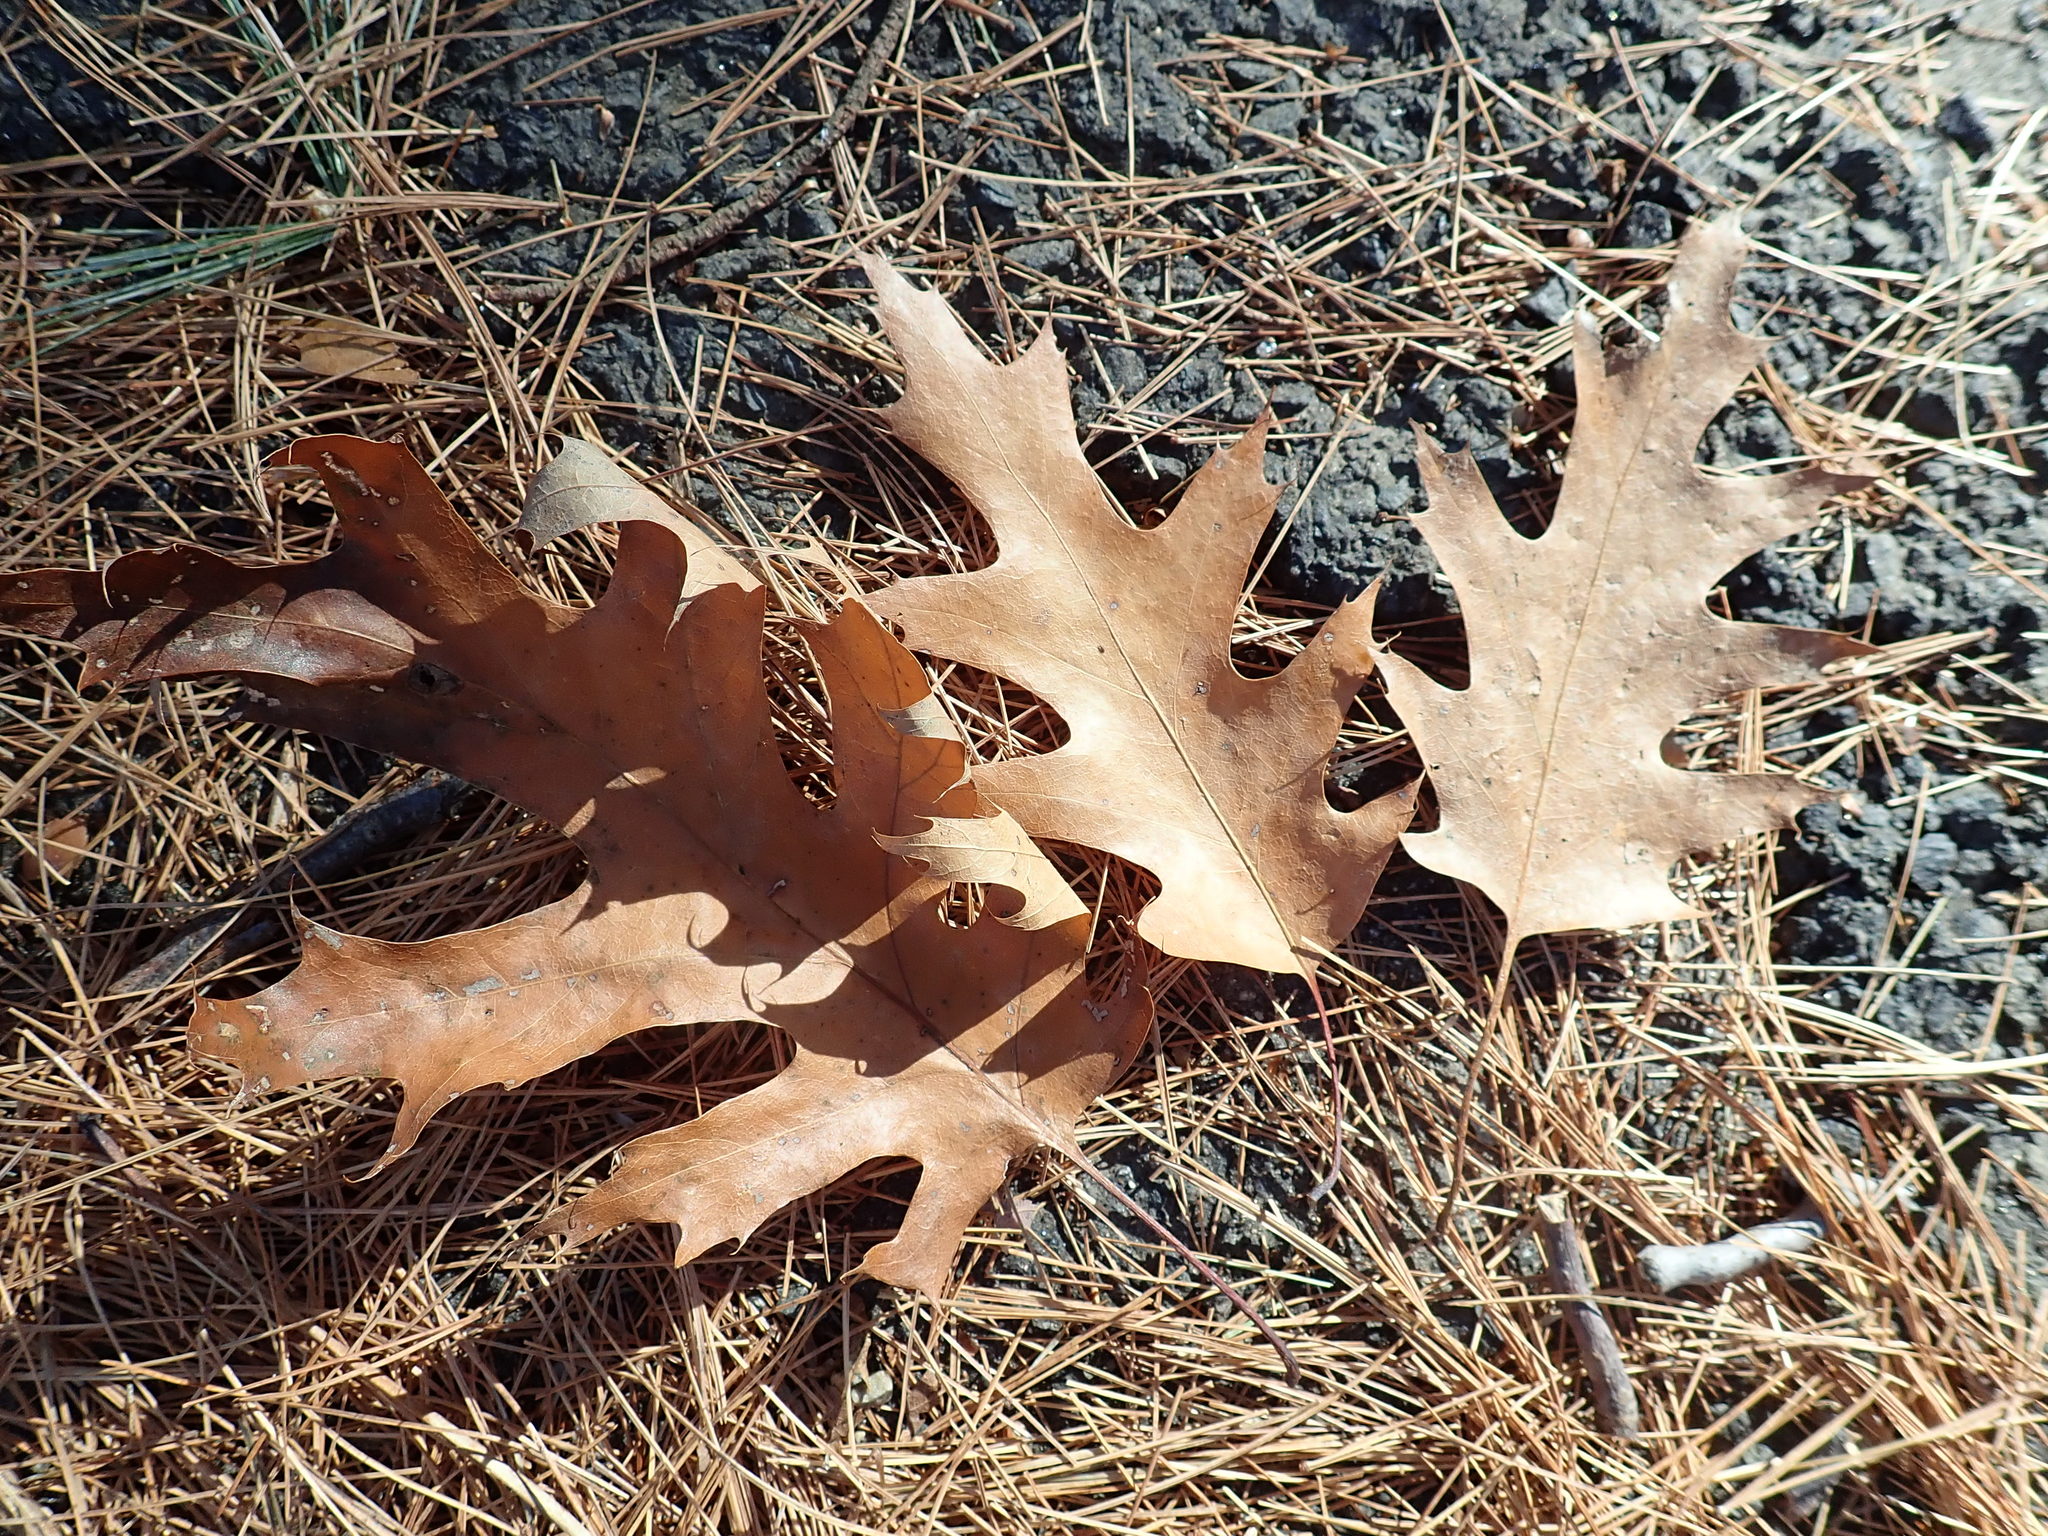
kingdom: Plantae
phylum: Tracheophyta
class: Magnoliopsida
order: Fagales
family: Fagaceae
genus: Quercus
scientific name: Quercus rubra
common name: Red oak
